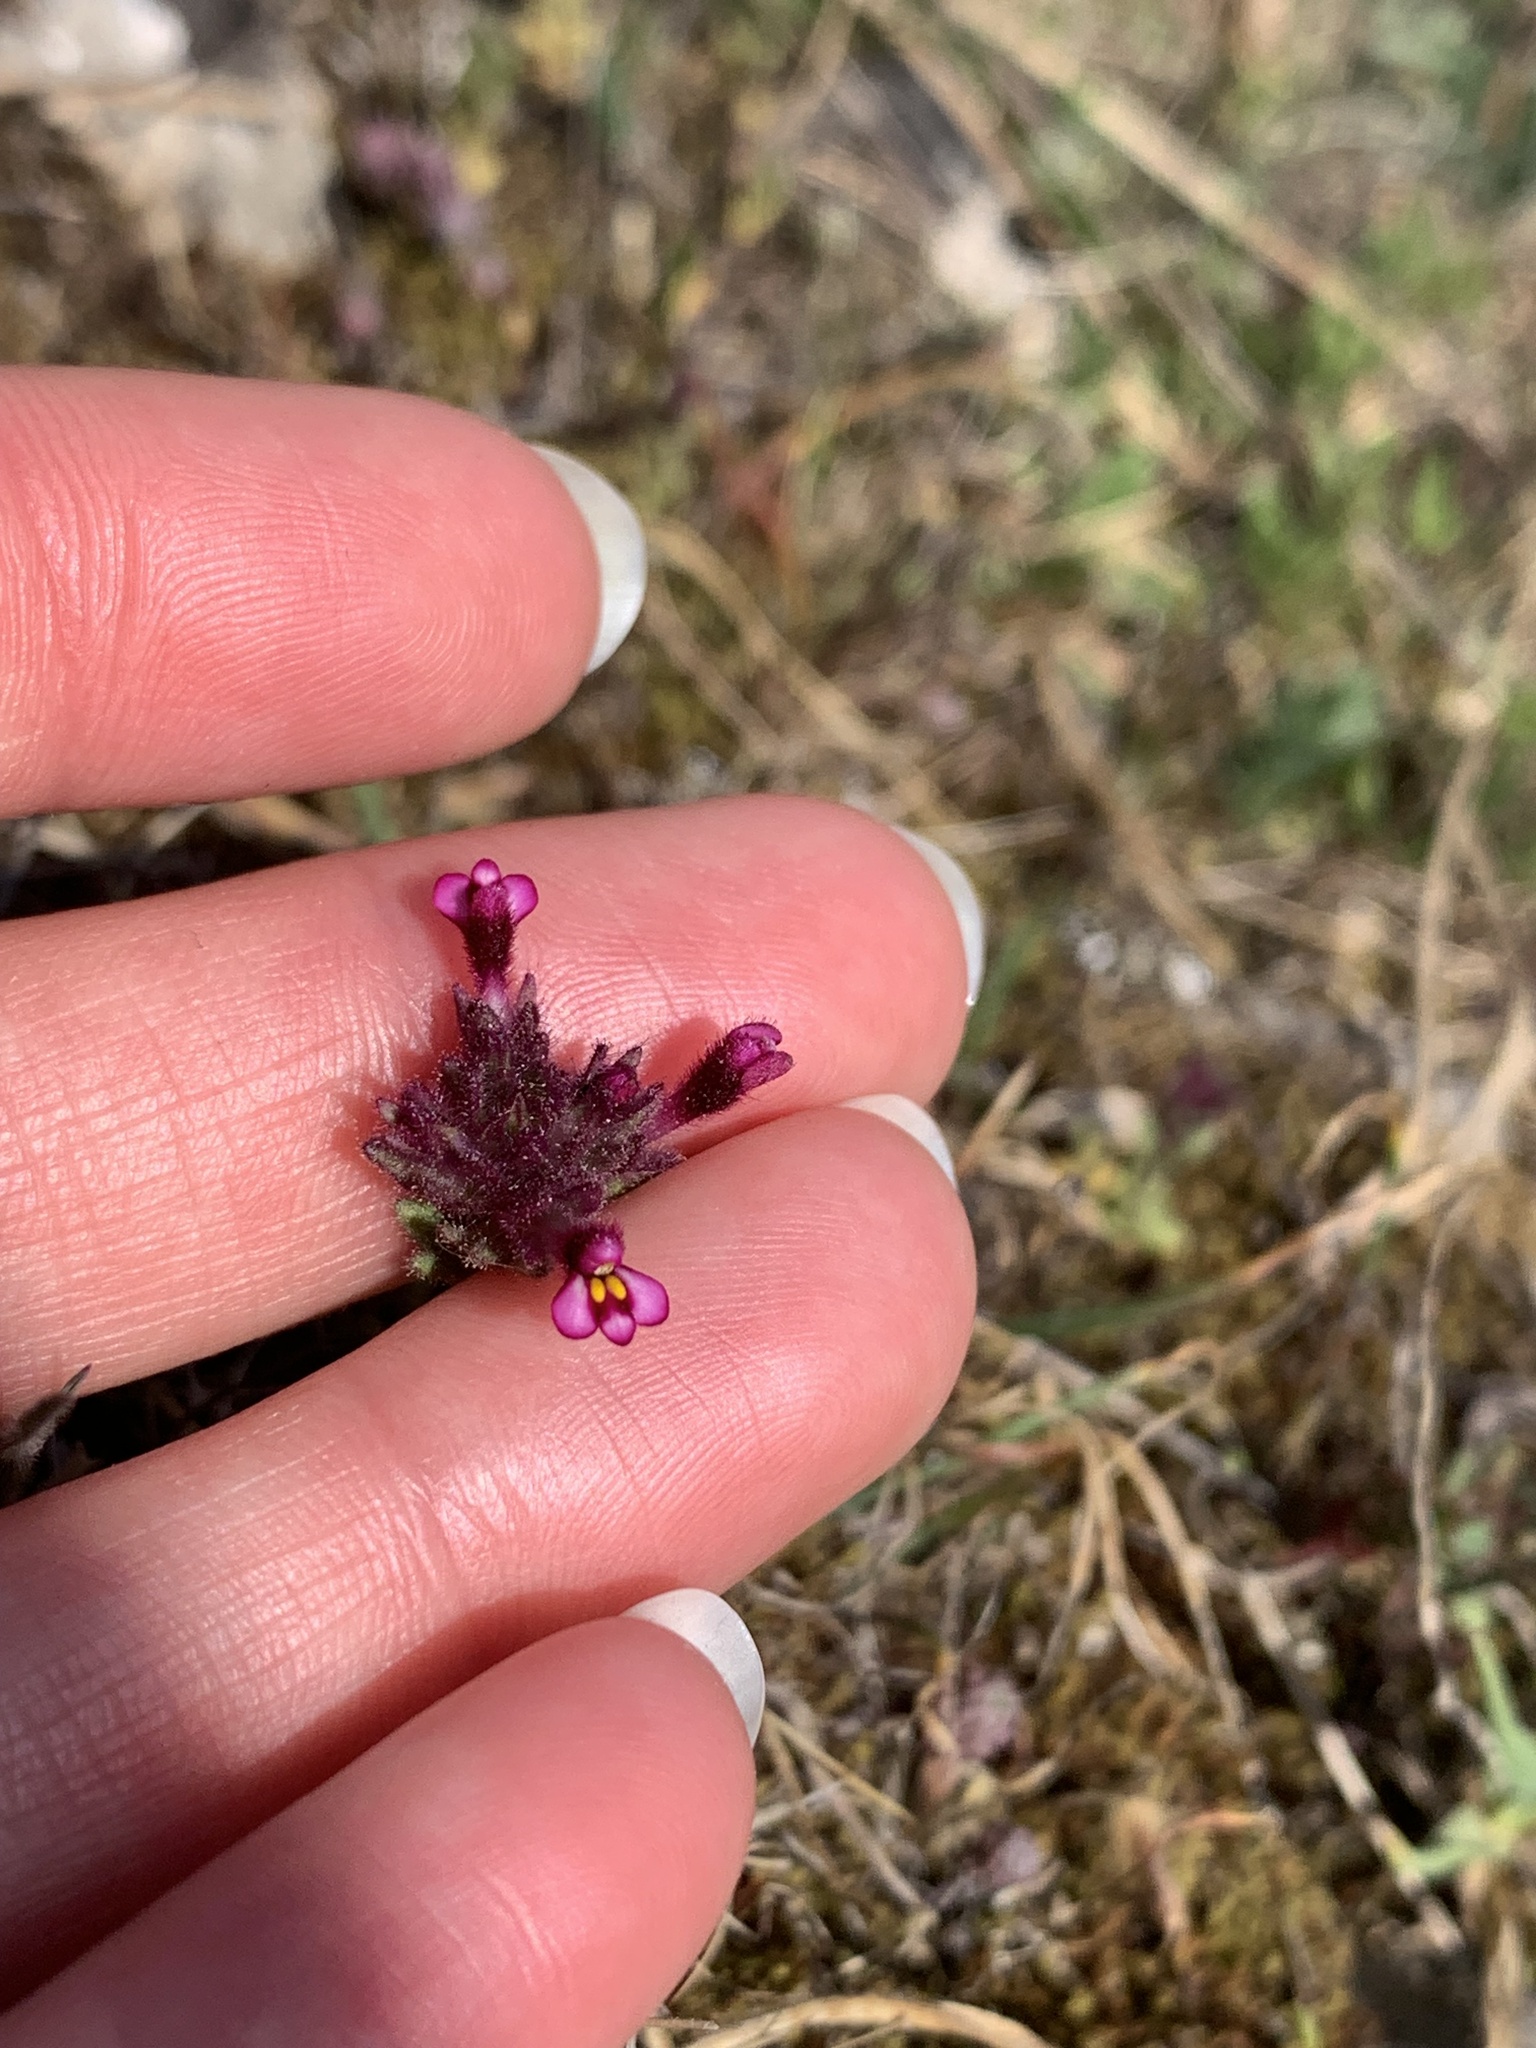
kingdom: Plantae
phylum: Tracheophyta
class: Magnoliopsida
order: Lamiales
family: Orobanchaceae
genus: Parentucellia
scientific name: Parentucellia latifolia
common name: Broadleaf glandweed
